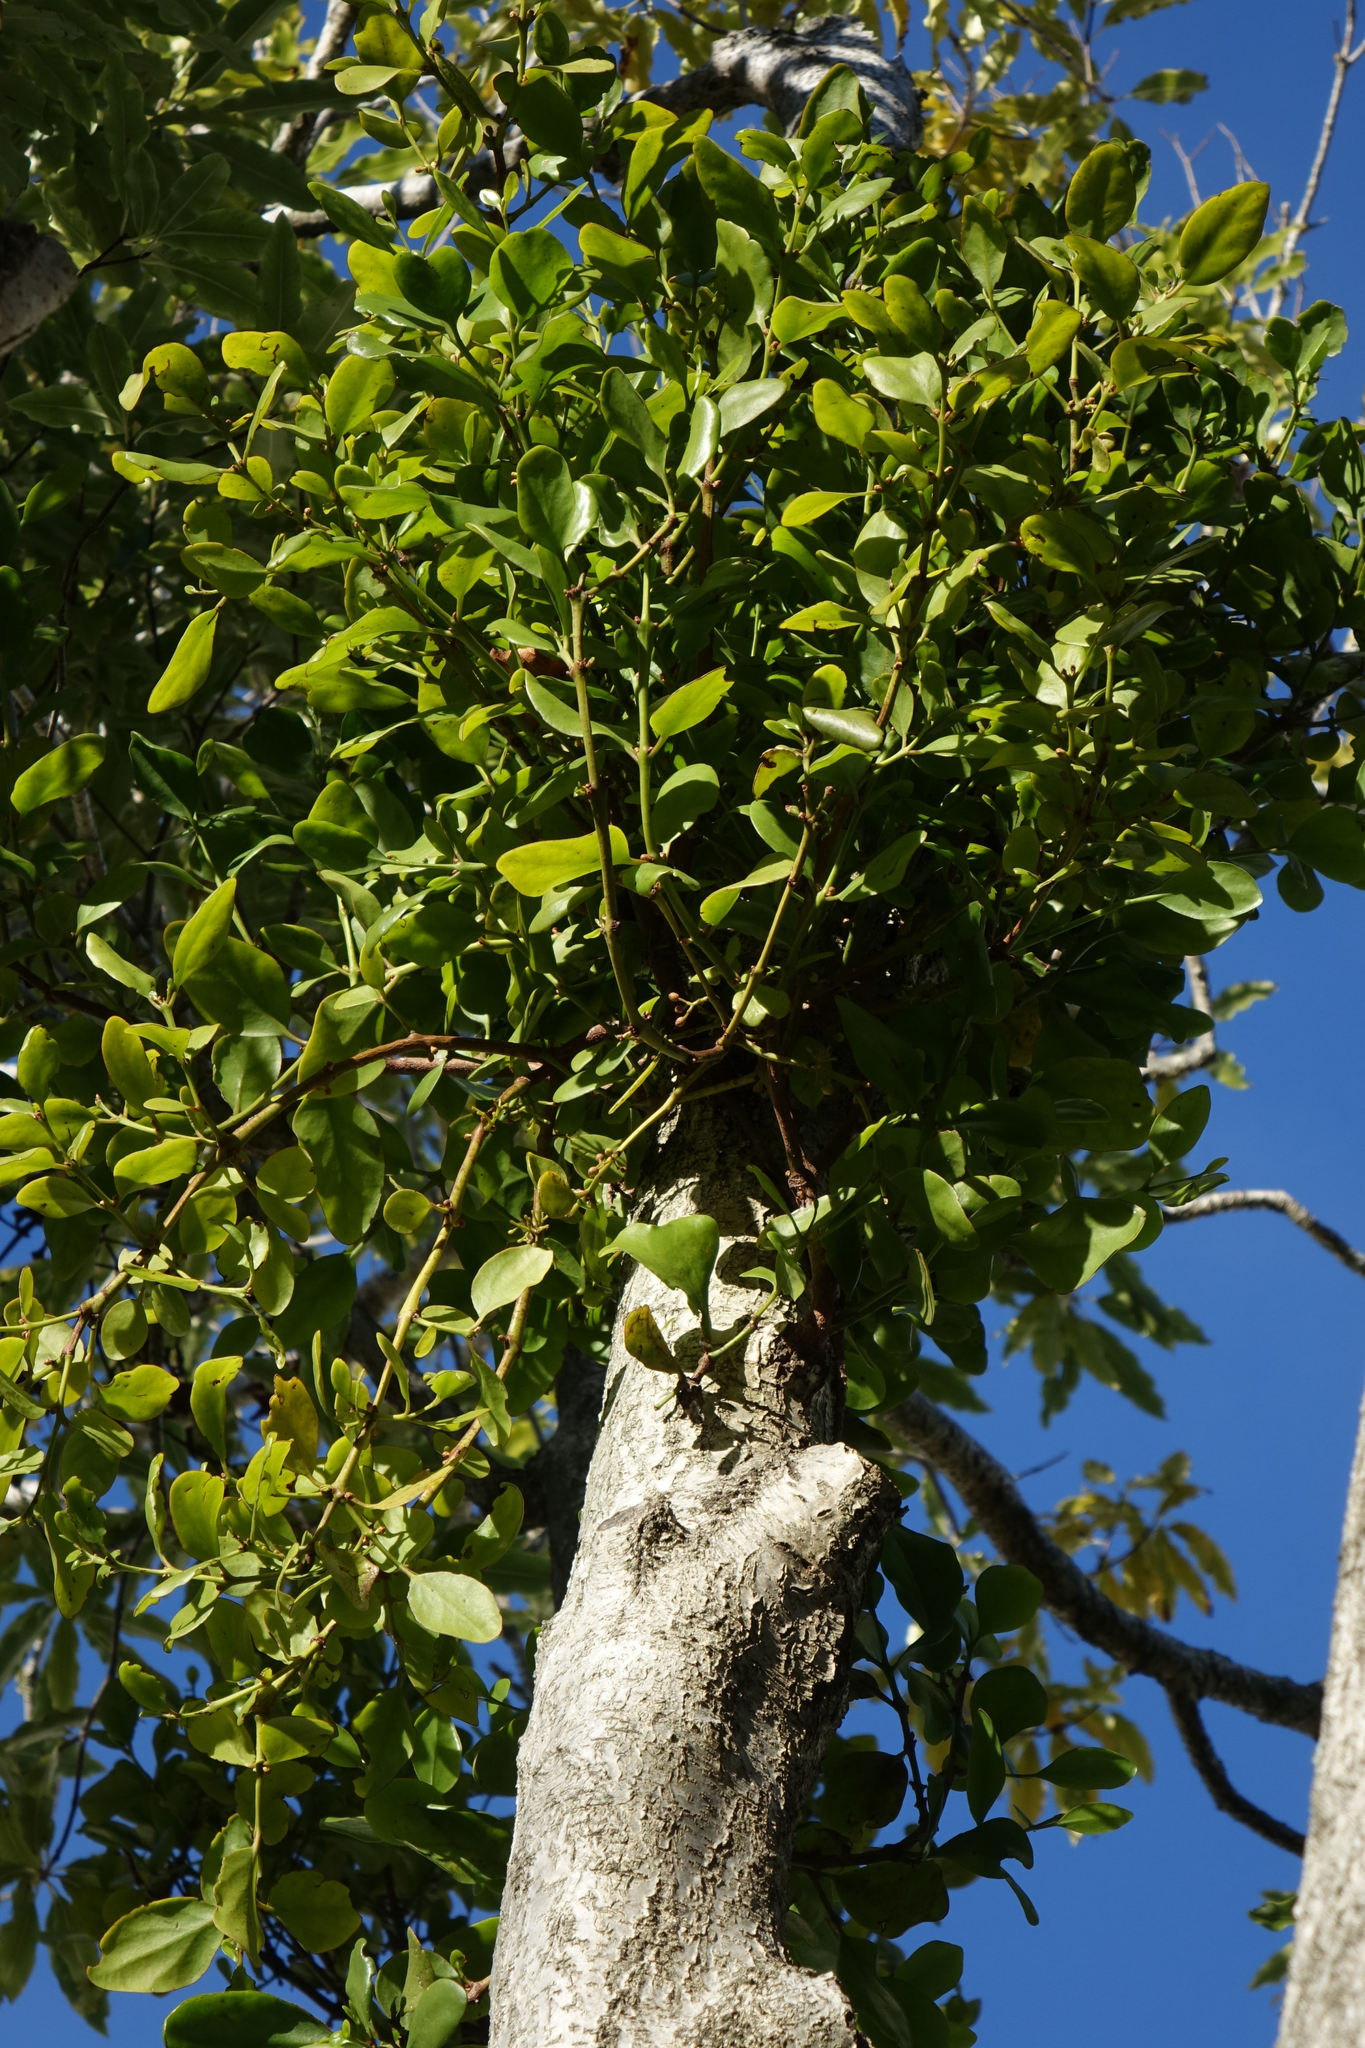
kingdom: Plantae
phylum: Tracheophyta
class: Magnoliopsida
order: Santalales
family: Loranthaceae
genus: Ileostylus
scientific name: Ileostylus micranthus
